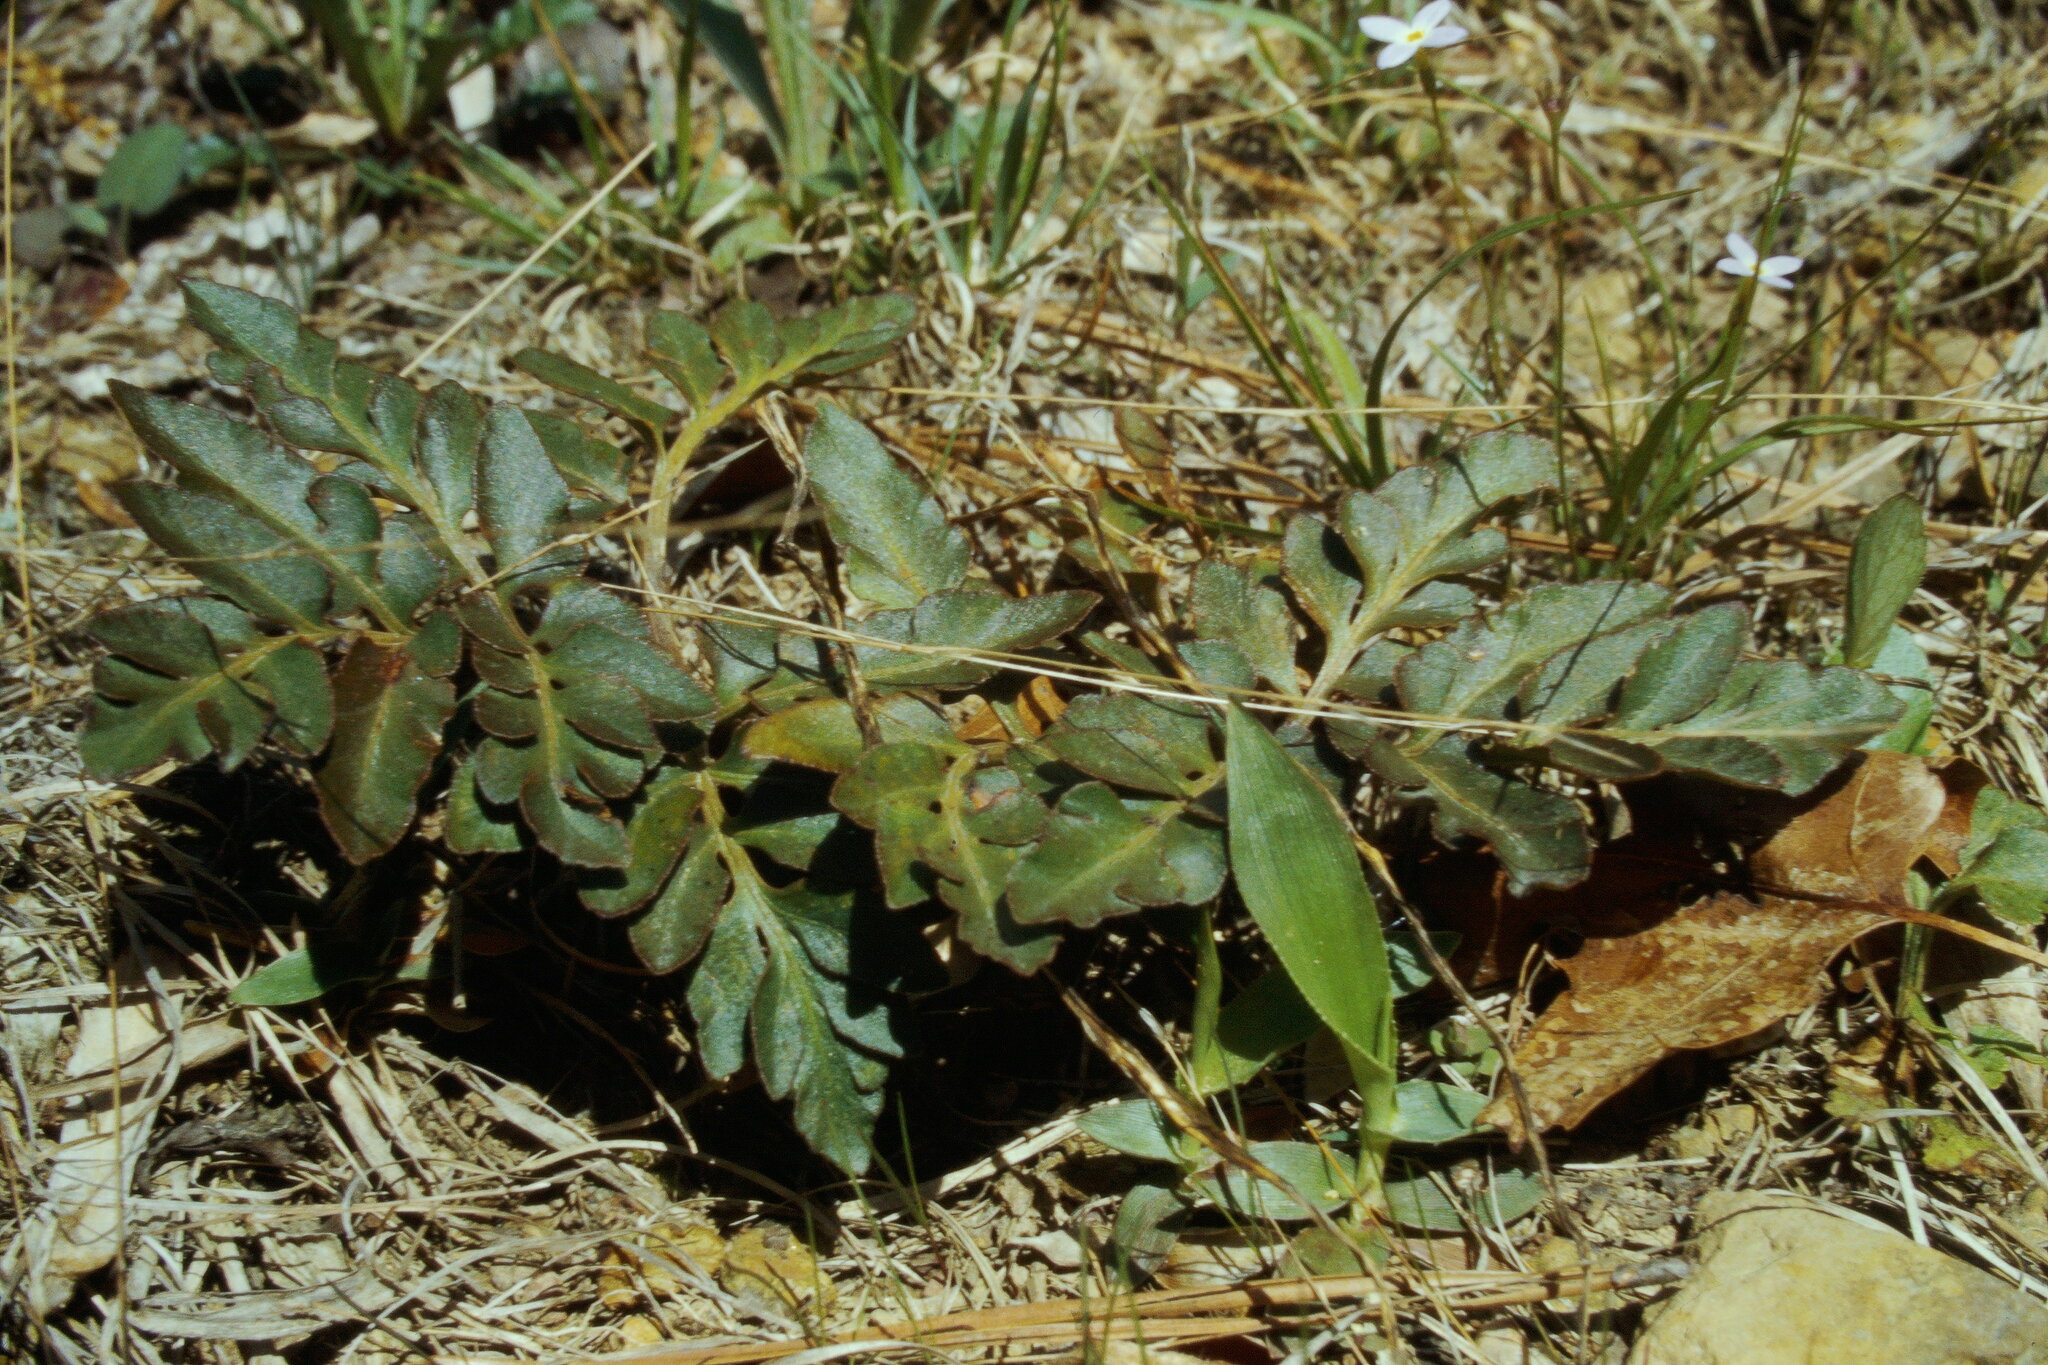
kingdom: Plantae
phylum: Tracheophyta
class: Polypodiopsida
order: Ophioglossales
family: Ophioglossaceae
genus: Sceptridium
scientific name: Sceptridium dissectum
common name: Cut-leaved grapefern
